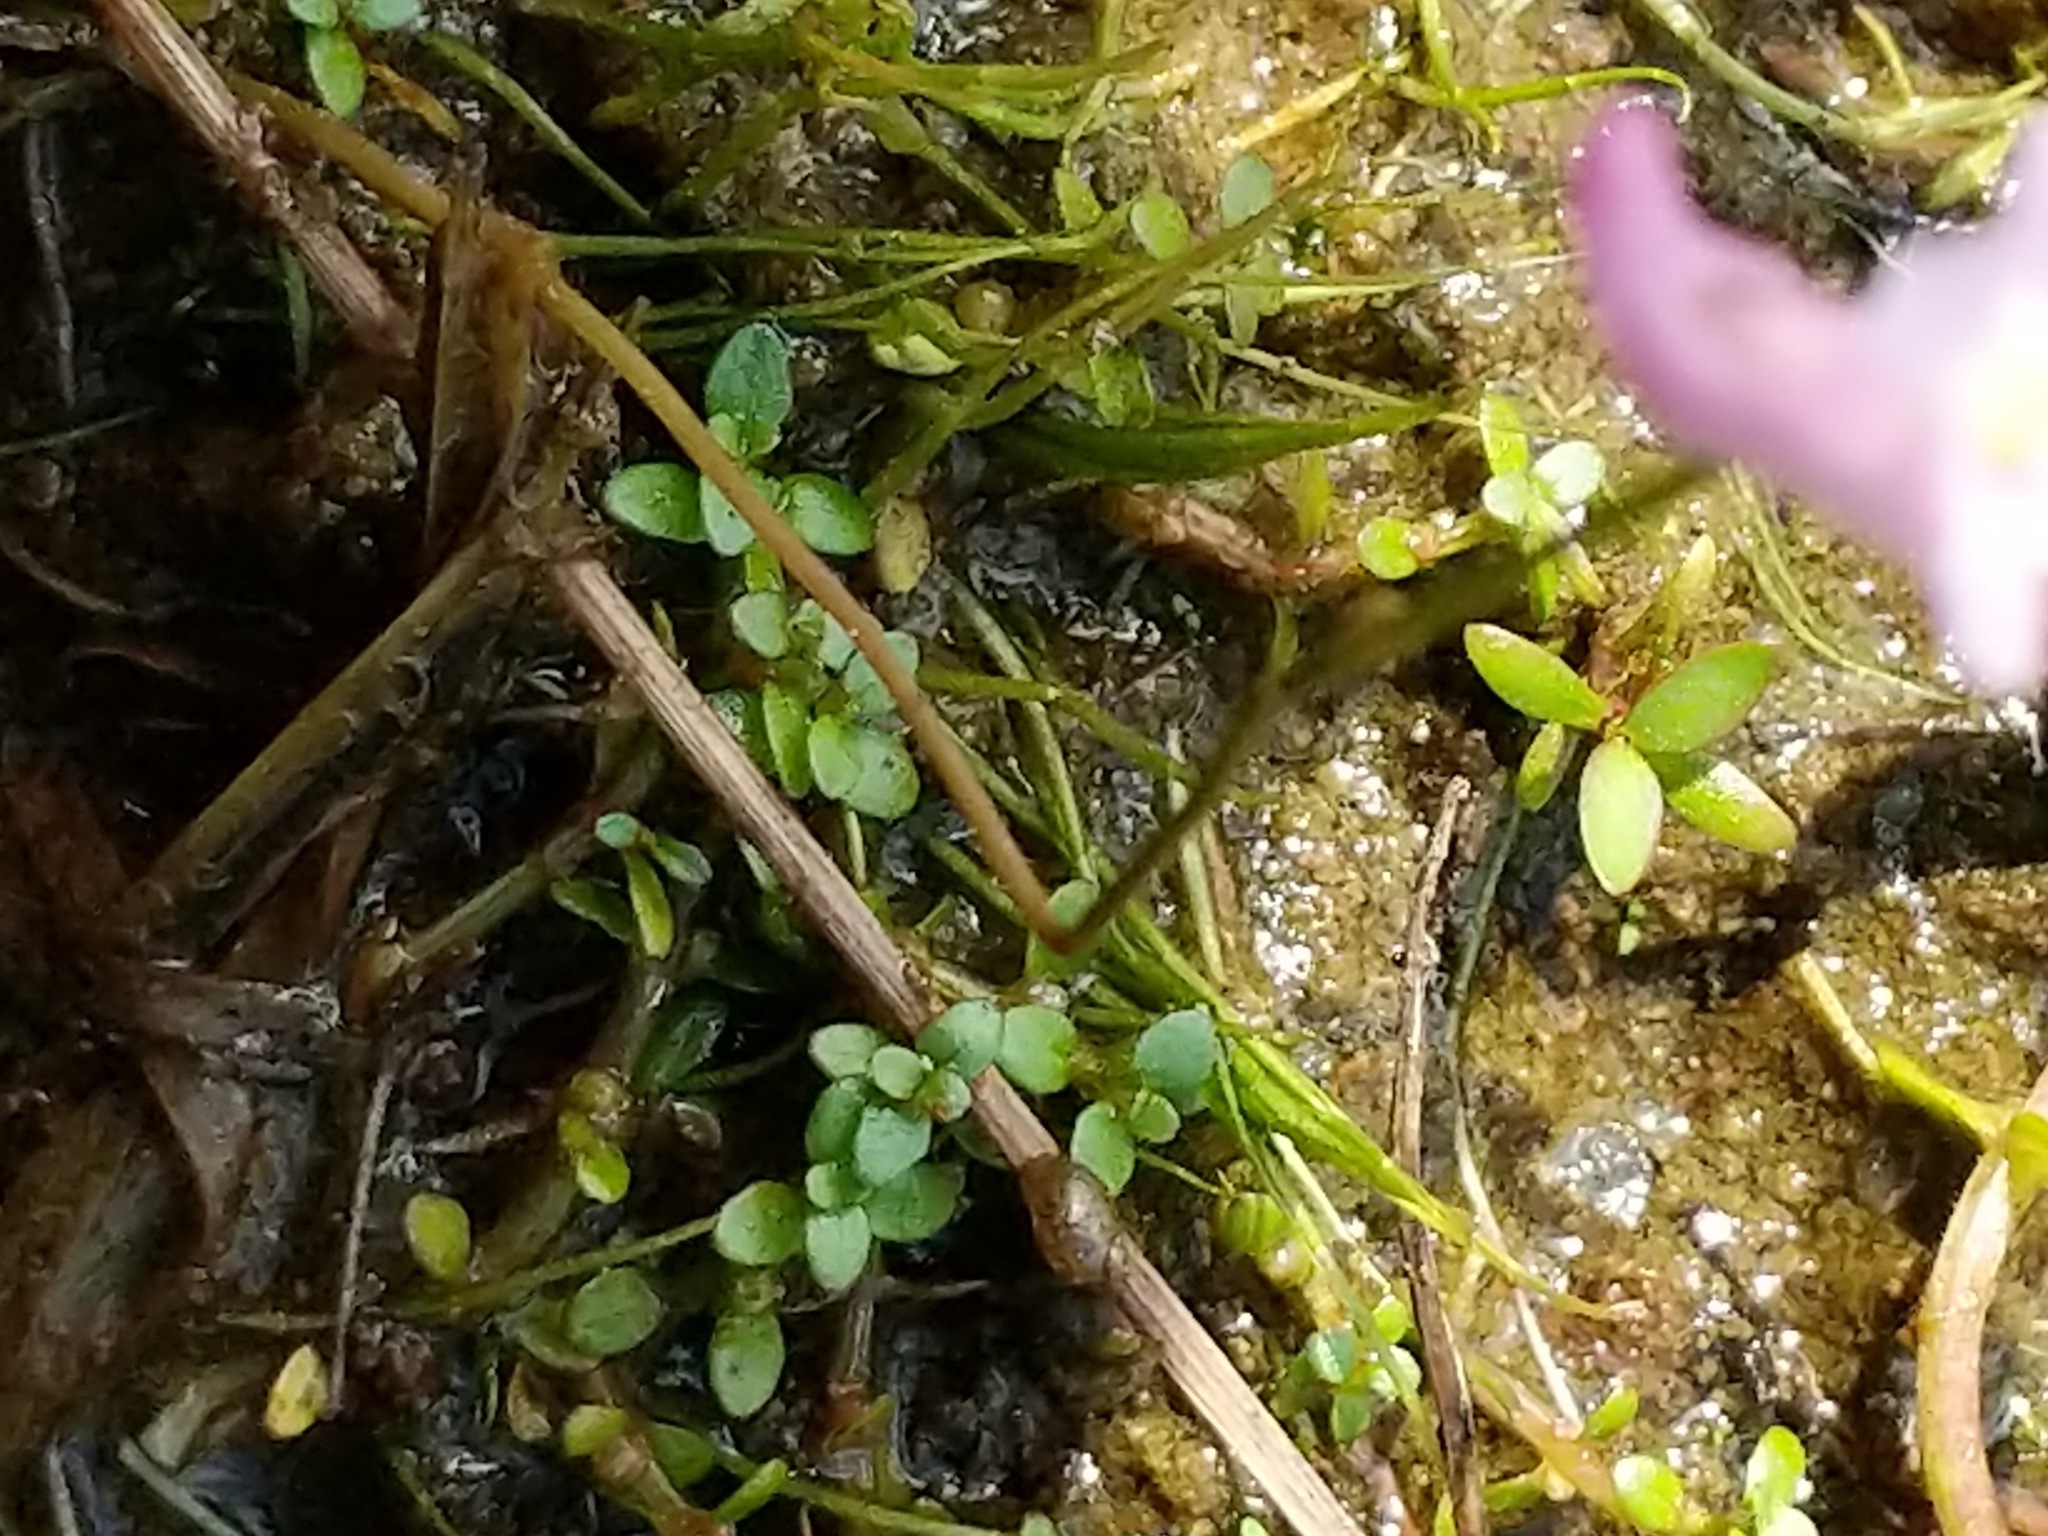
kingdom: Plantae
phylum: Tracheophyta
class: Magnoliopsida
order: Lamiales
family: Lentibulariaceae
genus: Utricularia
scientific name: Utricularia resupinata
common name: Northeastern bladderwort
